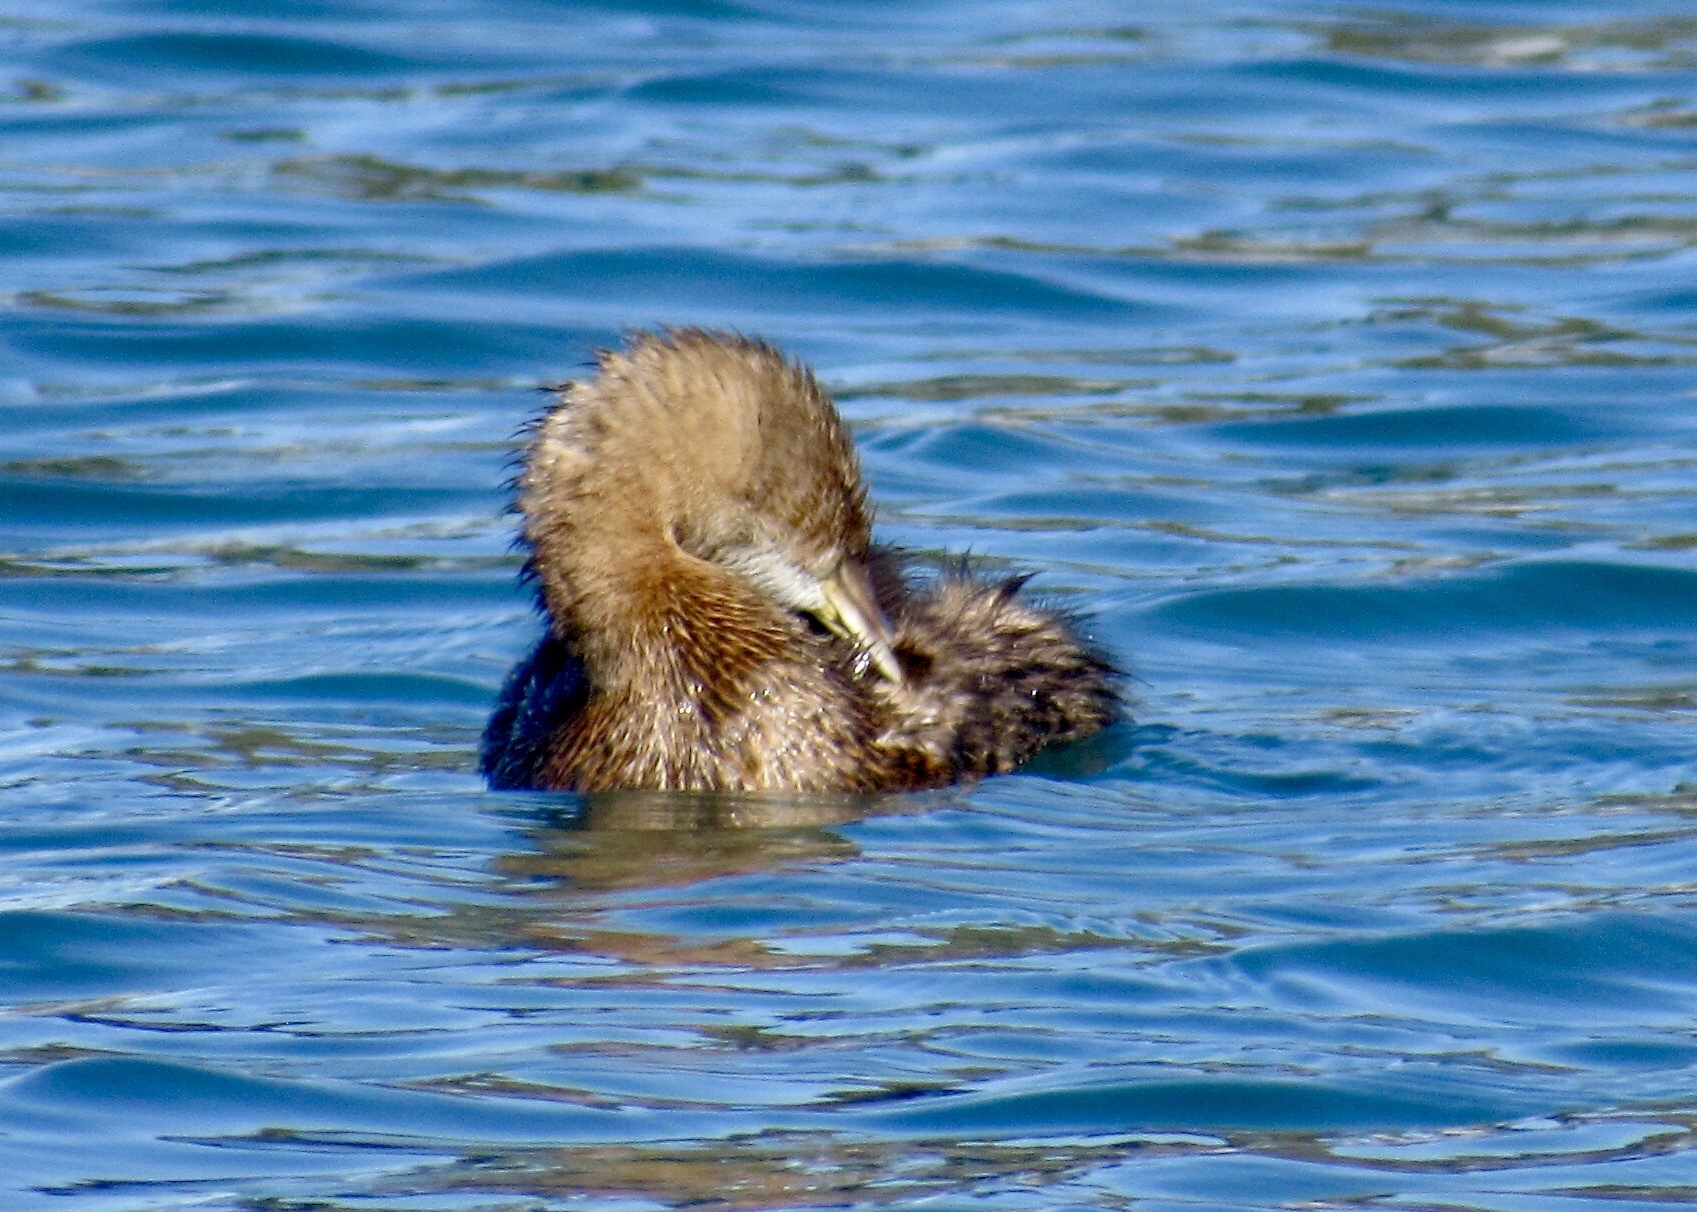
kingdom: Animalia
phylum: Chordata
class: Aves
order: Podicipediformes
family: Podicipedidae
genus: Podilymbus
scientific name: Podilymbus podiceps
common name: Pied-billed grebe
